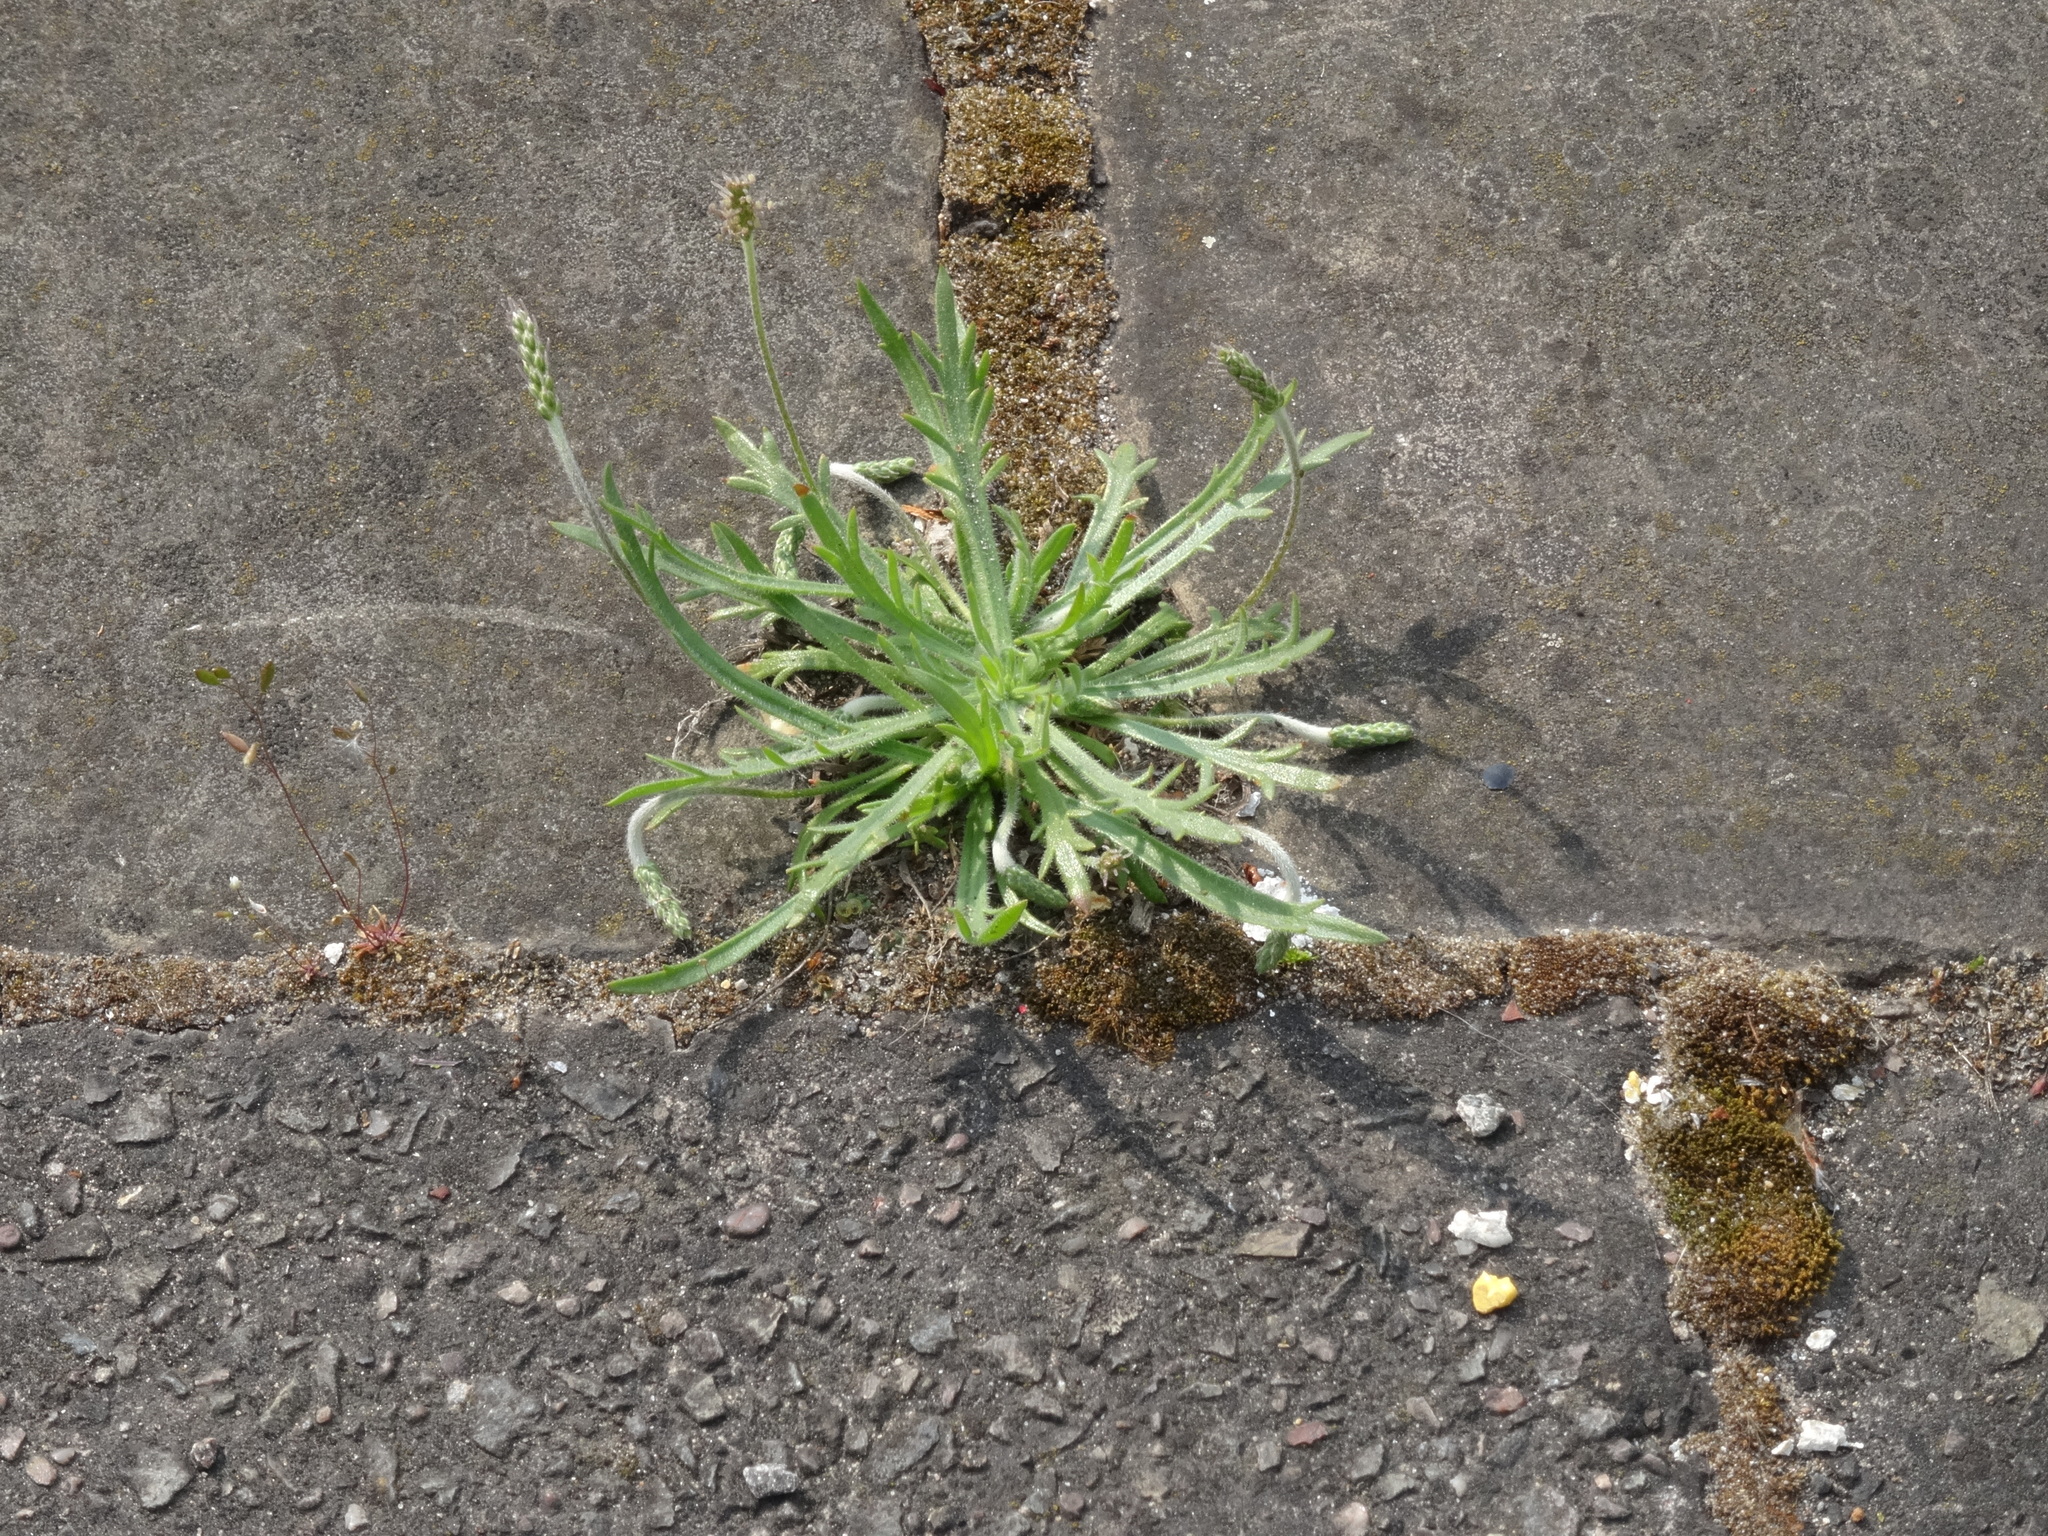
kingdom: Plantae
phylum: Tracheophyta
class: Magnoliopsida
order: Lamiales
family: Plantaginaceae
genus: Plantago
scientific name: Plantago coronopus
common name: Buck's-horn plantain
